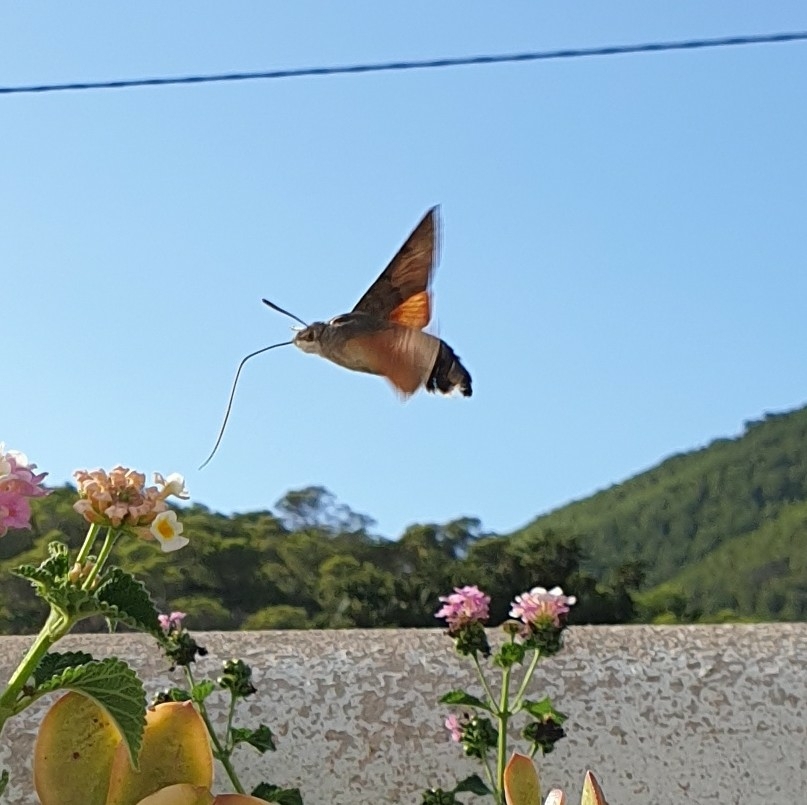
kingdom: Animalia
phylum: Arthropoda
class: Insecta
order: Lepidoptera
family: Sphingidae
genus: Macroglossum
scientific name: Macroglossum stellatarum
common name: Humming-bird hawk-moth
